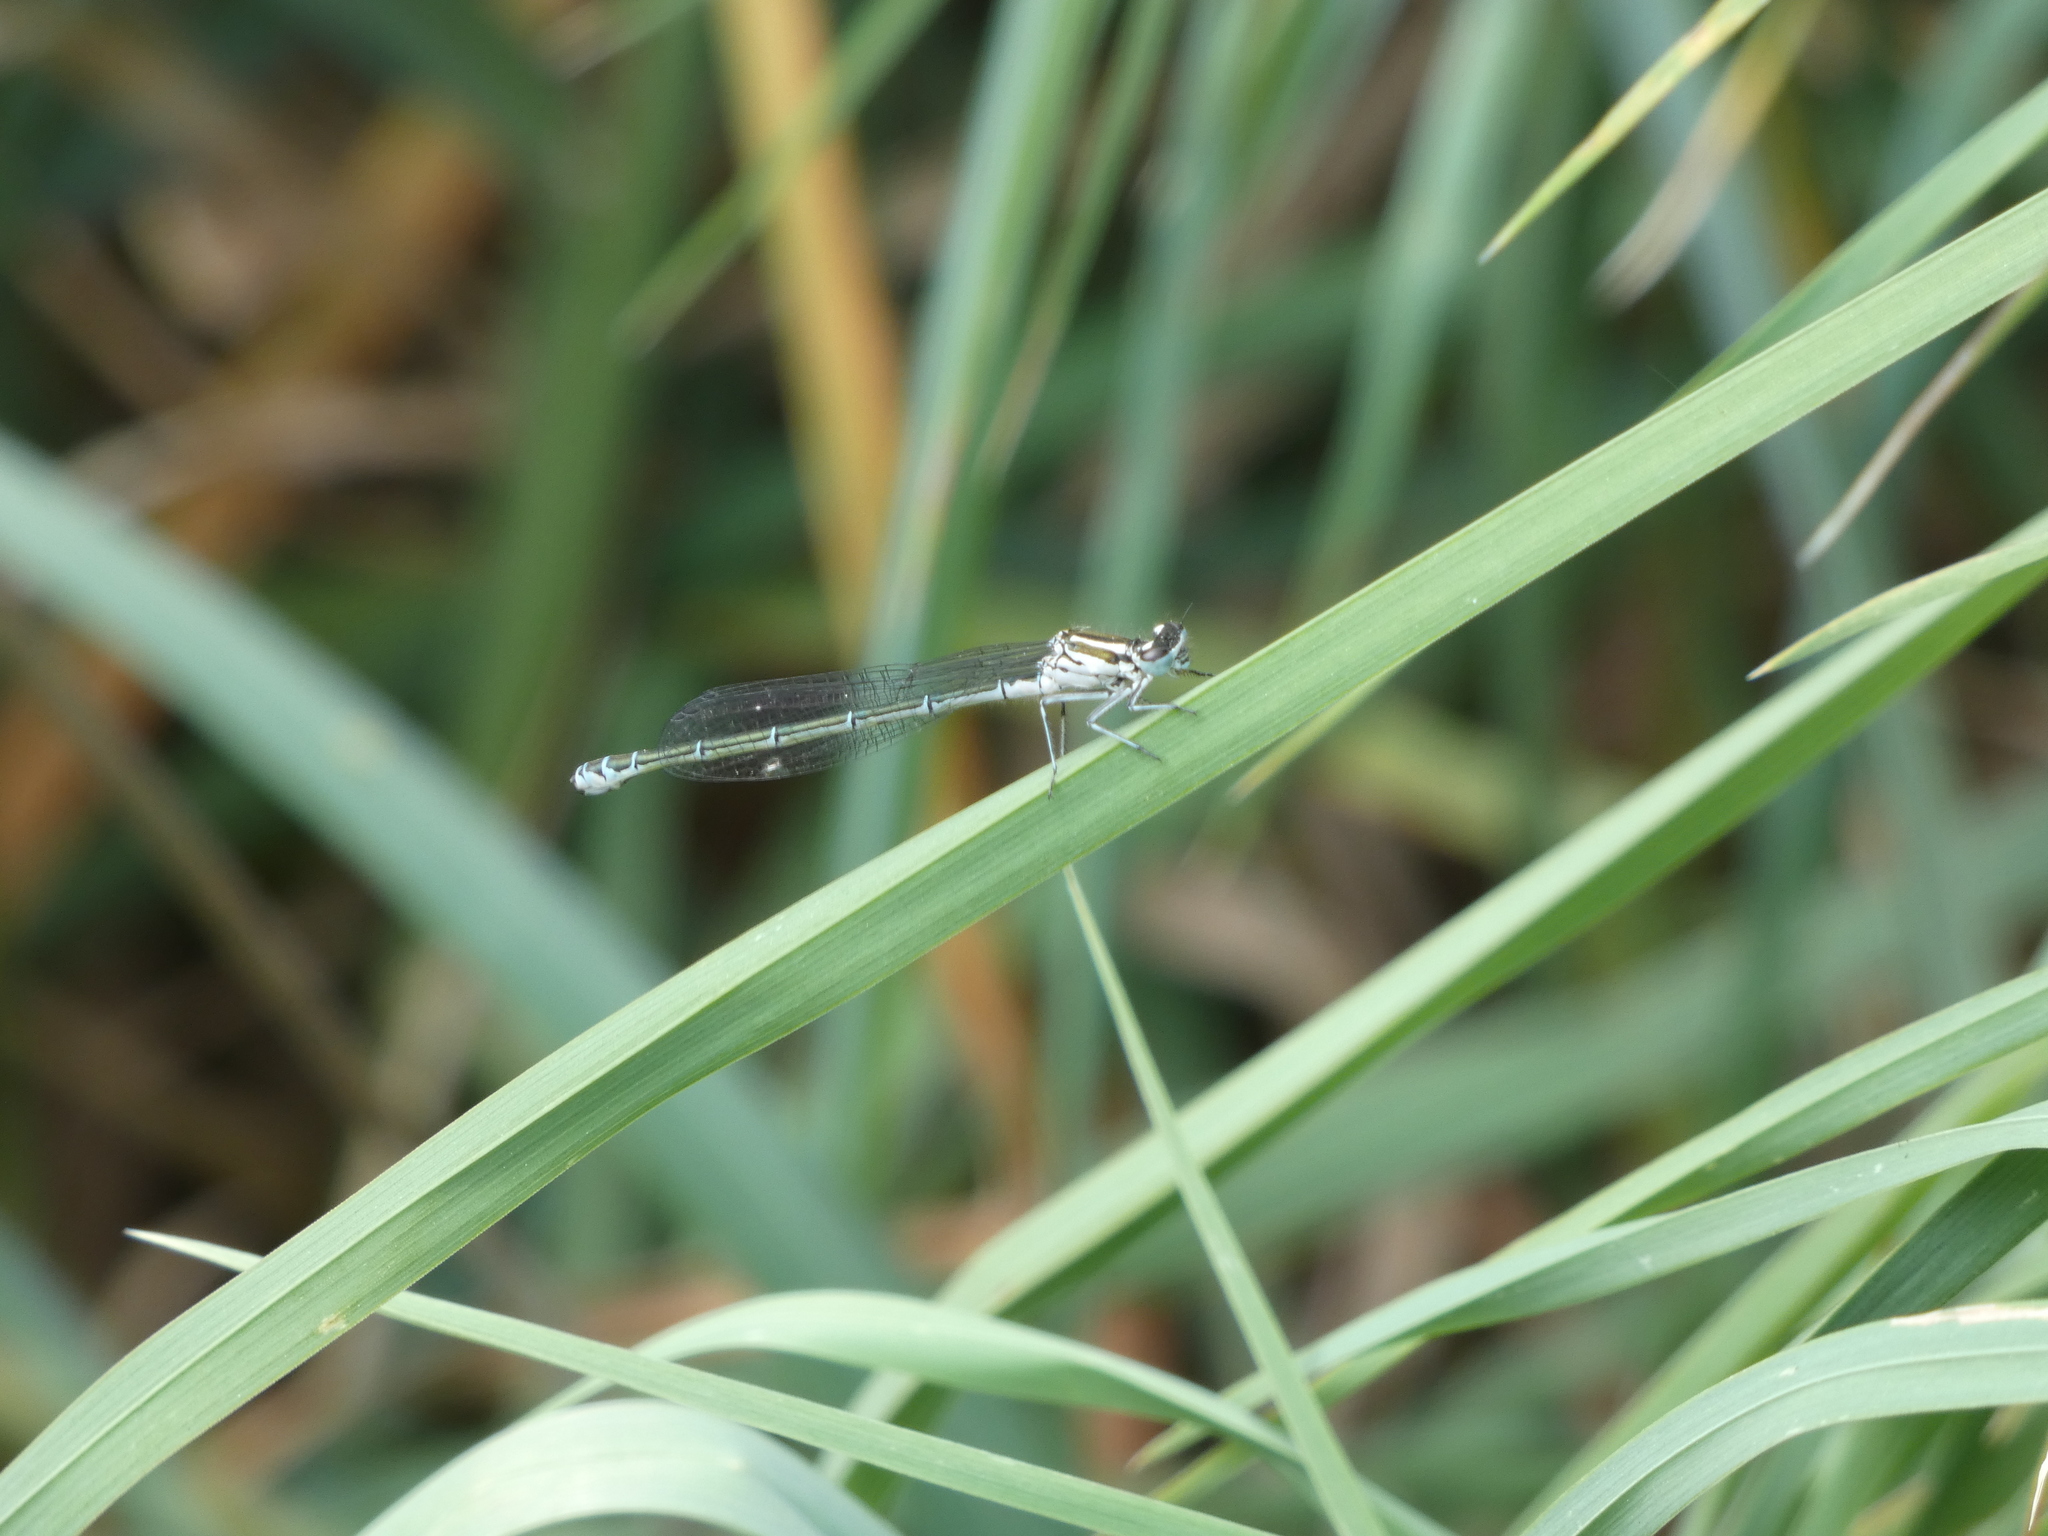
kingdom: Animalia
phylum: Arthropoda
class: Insecta
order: Odonata
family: Coenagrionidae
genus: Coenagrion
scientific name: Coenagrion puella
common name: Azure damselfly
